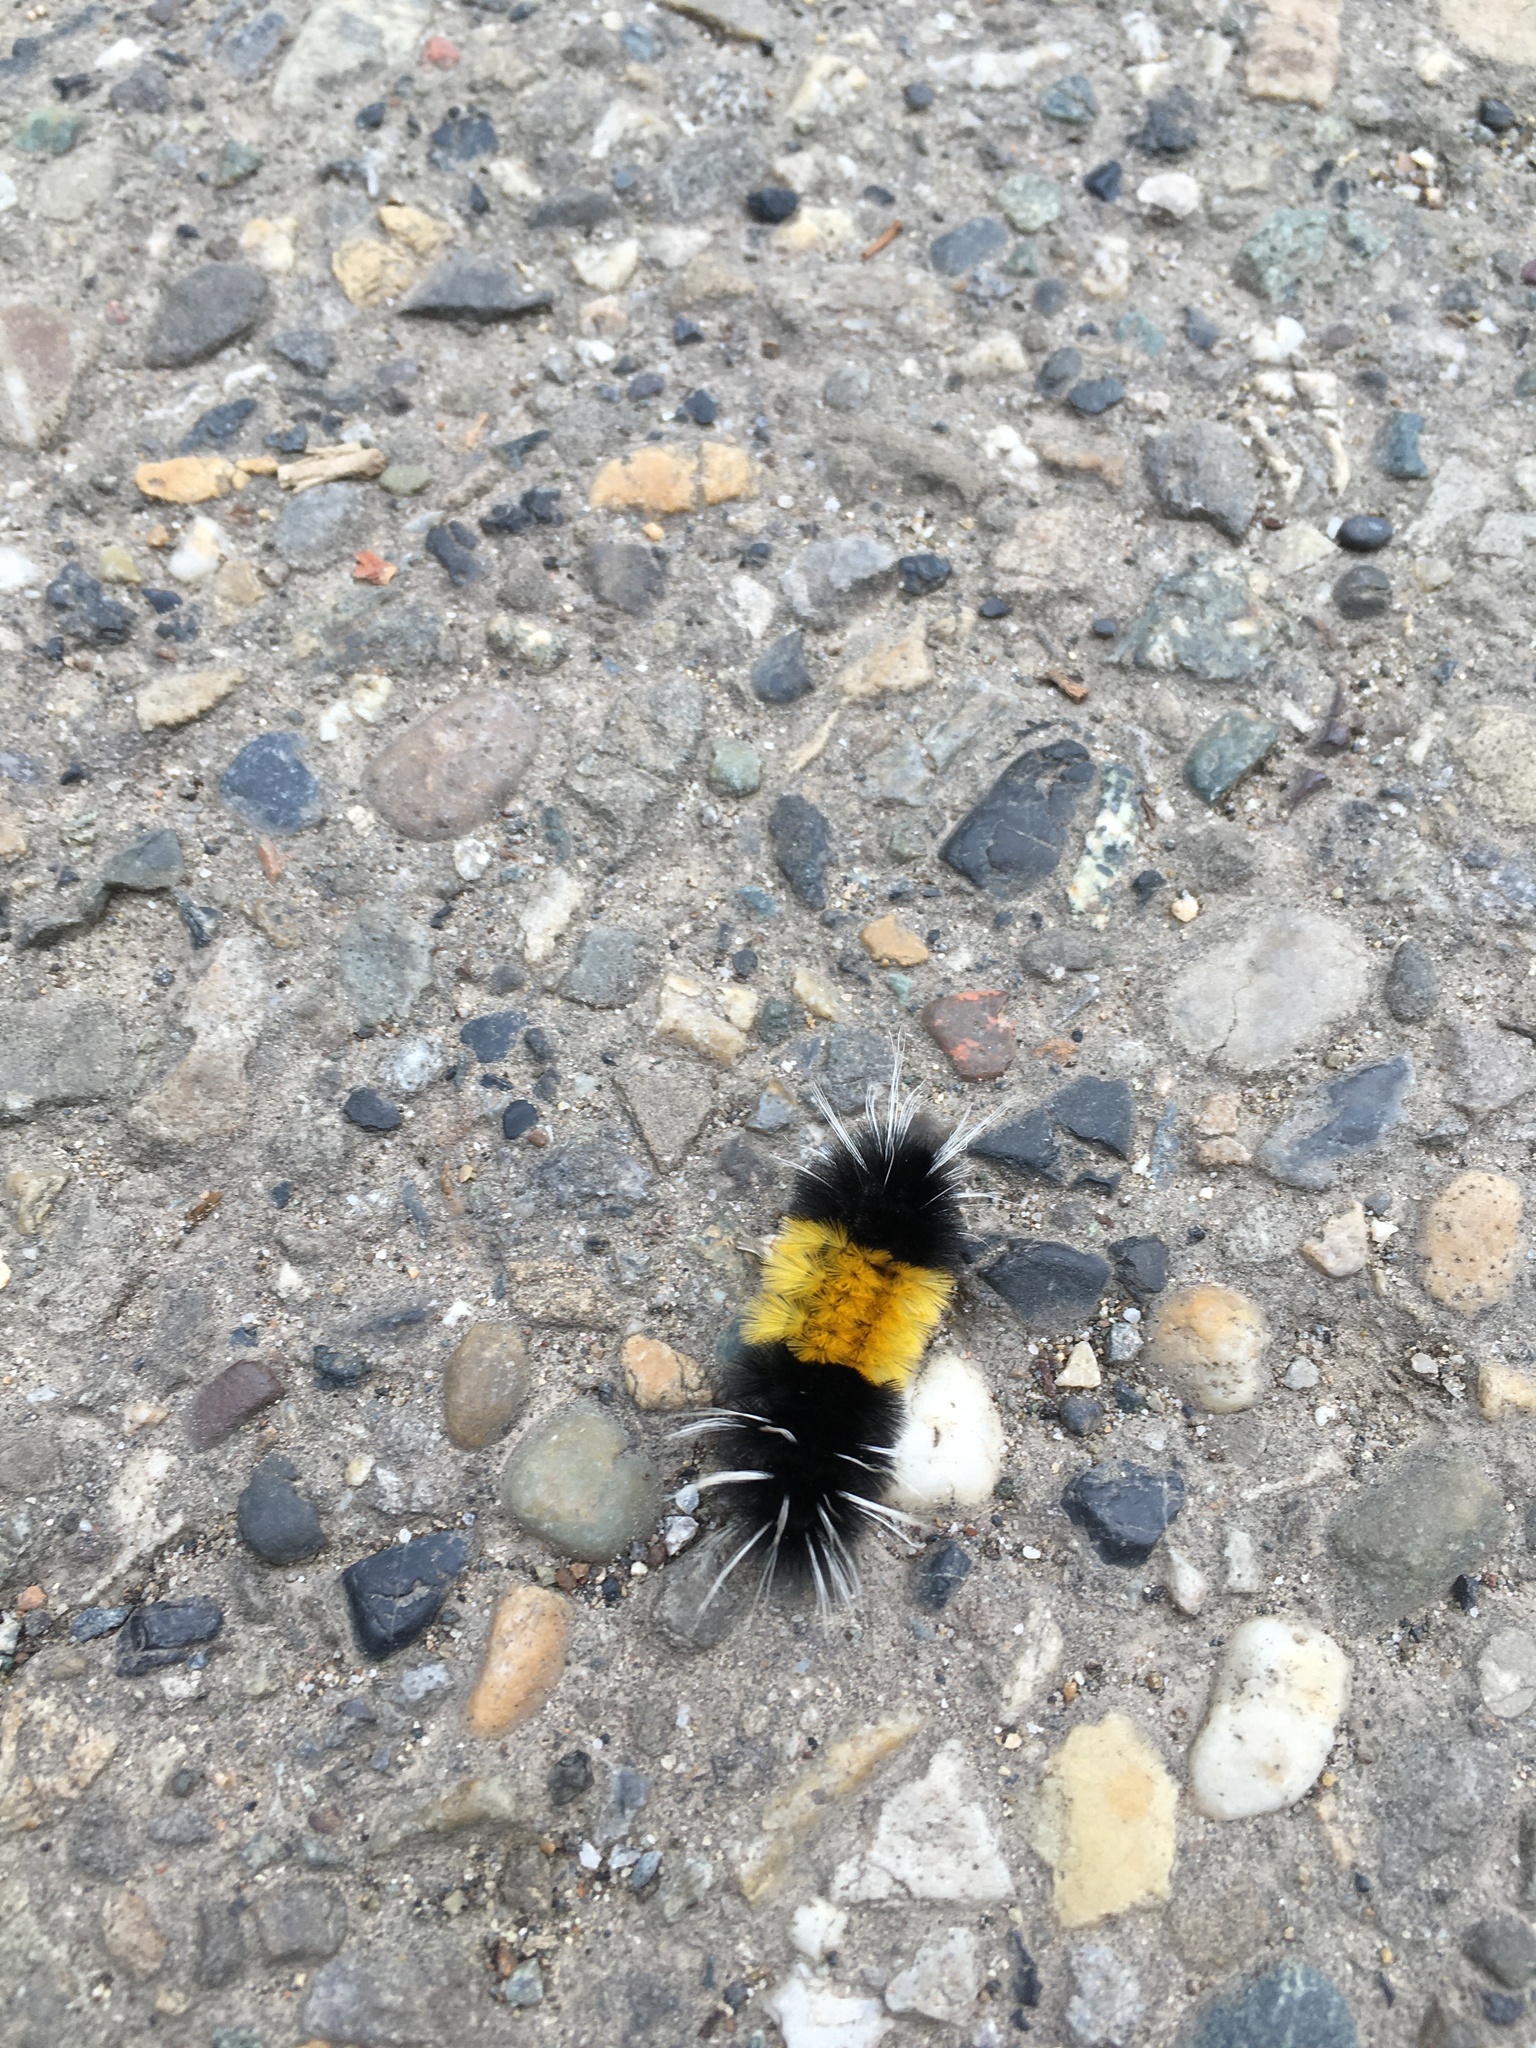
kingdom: Animalia
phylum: Arthropoda
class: Insecta
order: Lepidoptera
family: Erebidae
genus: Lophocampa
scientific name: Lophocampa maculata
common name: Spotted tussock moth
